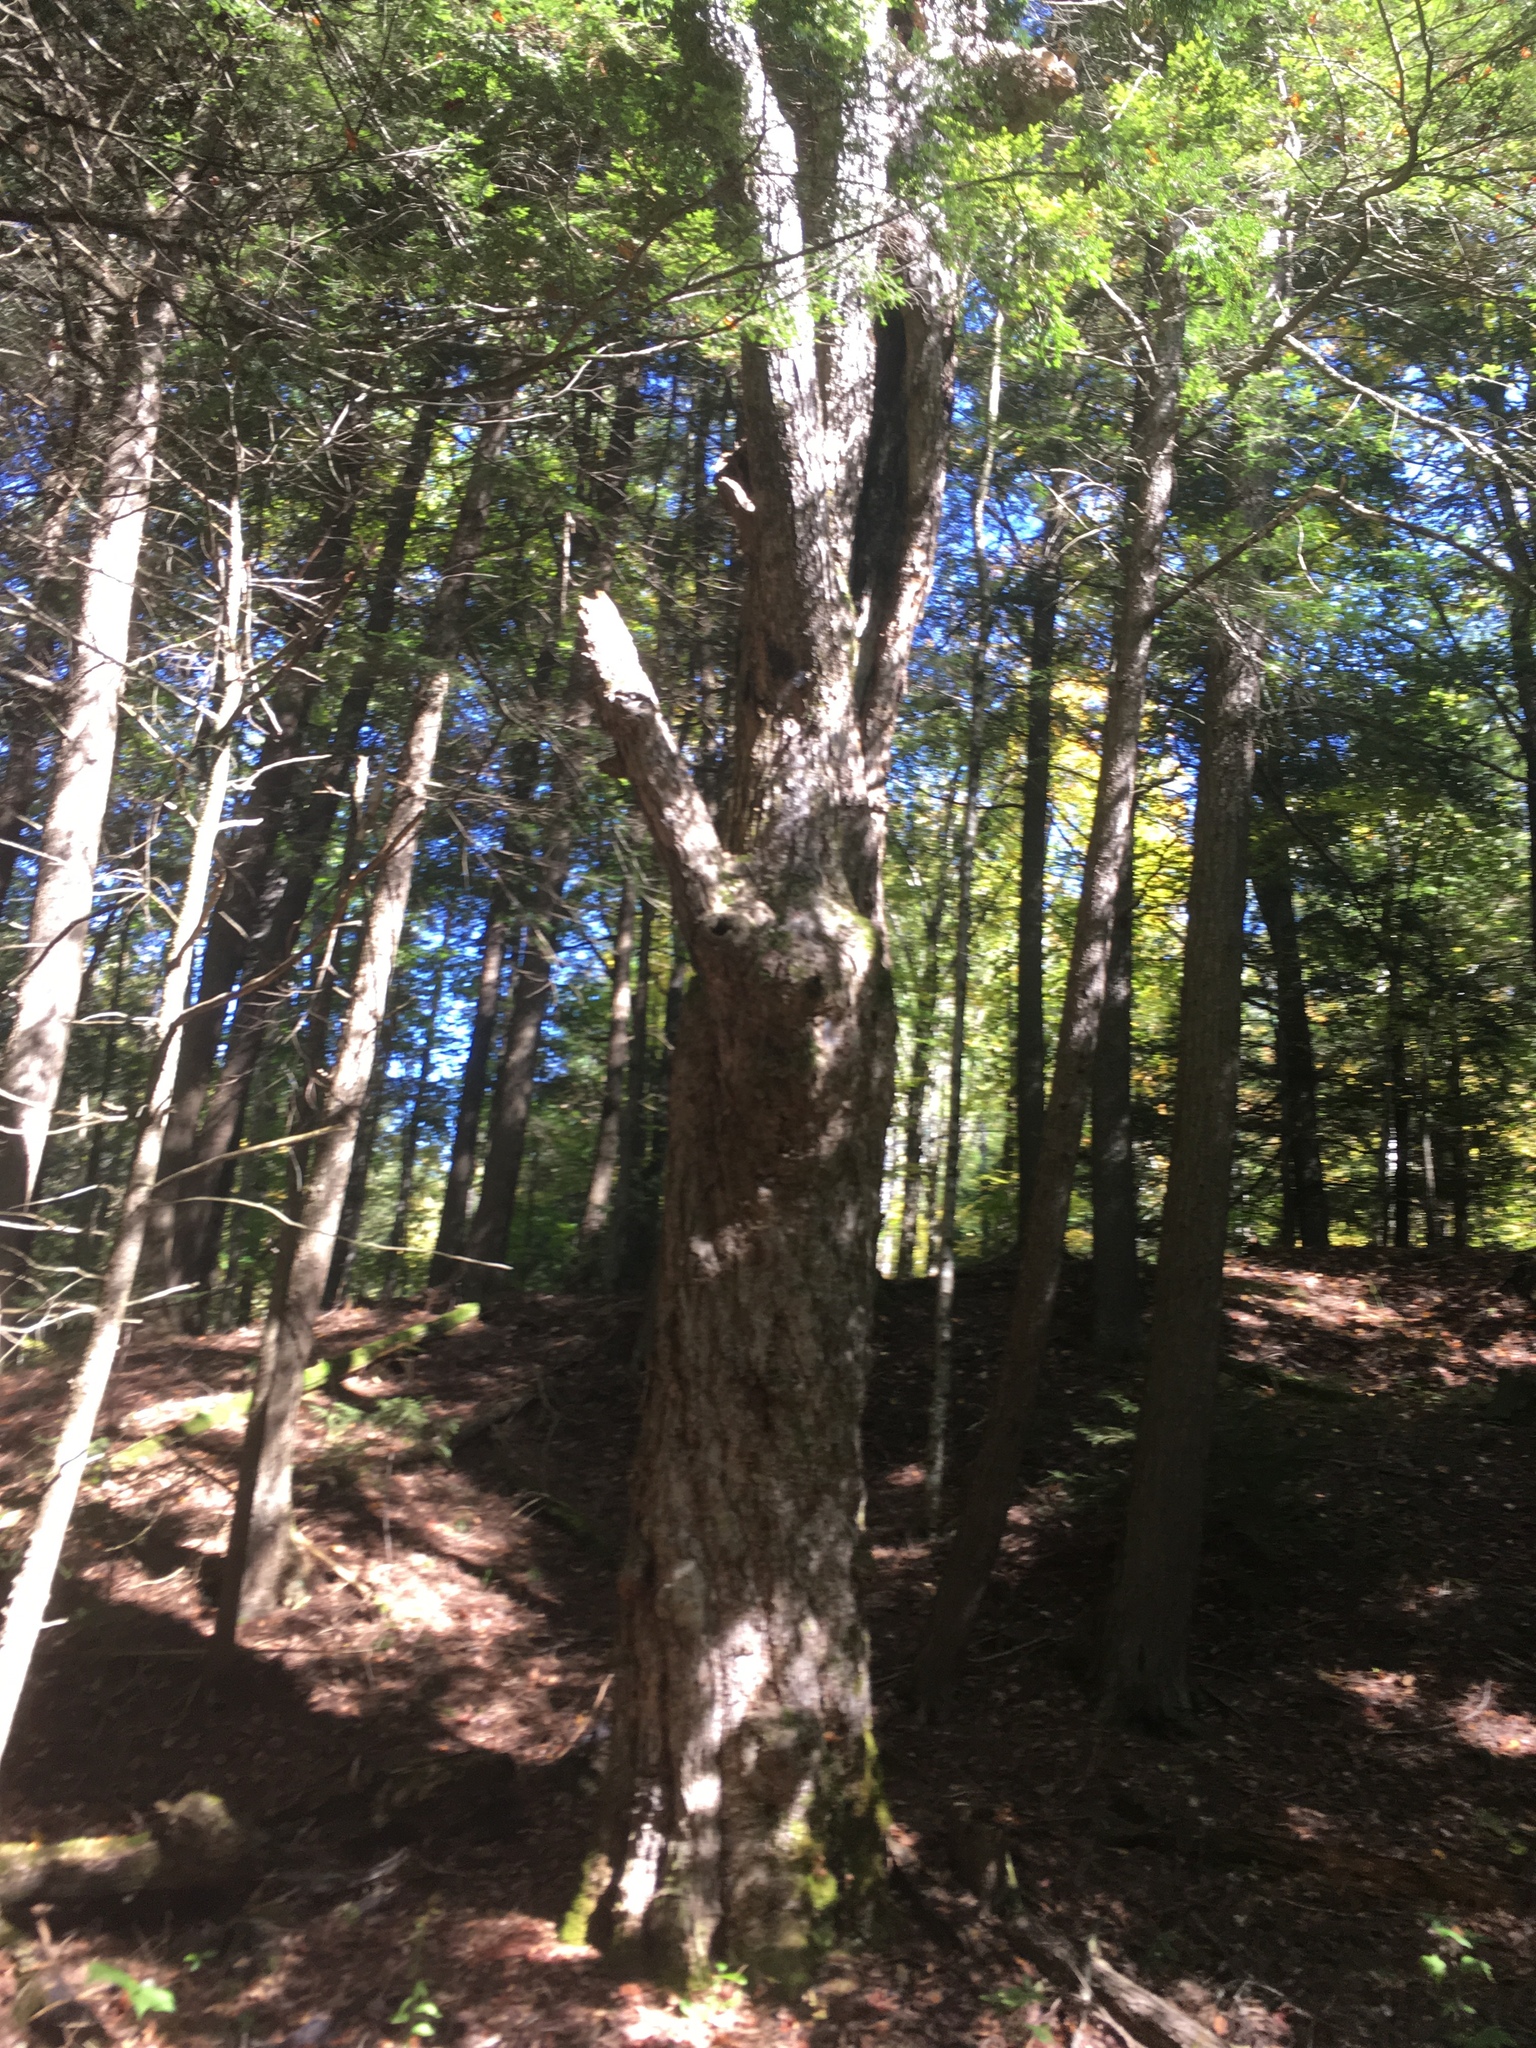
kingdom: Plantae
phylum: Tracheophyta
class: Magnoliopsida
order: Sapindales
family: Sapindaceae
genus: Acer
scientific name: Acer saccharum
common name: Sugar maple
